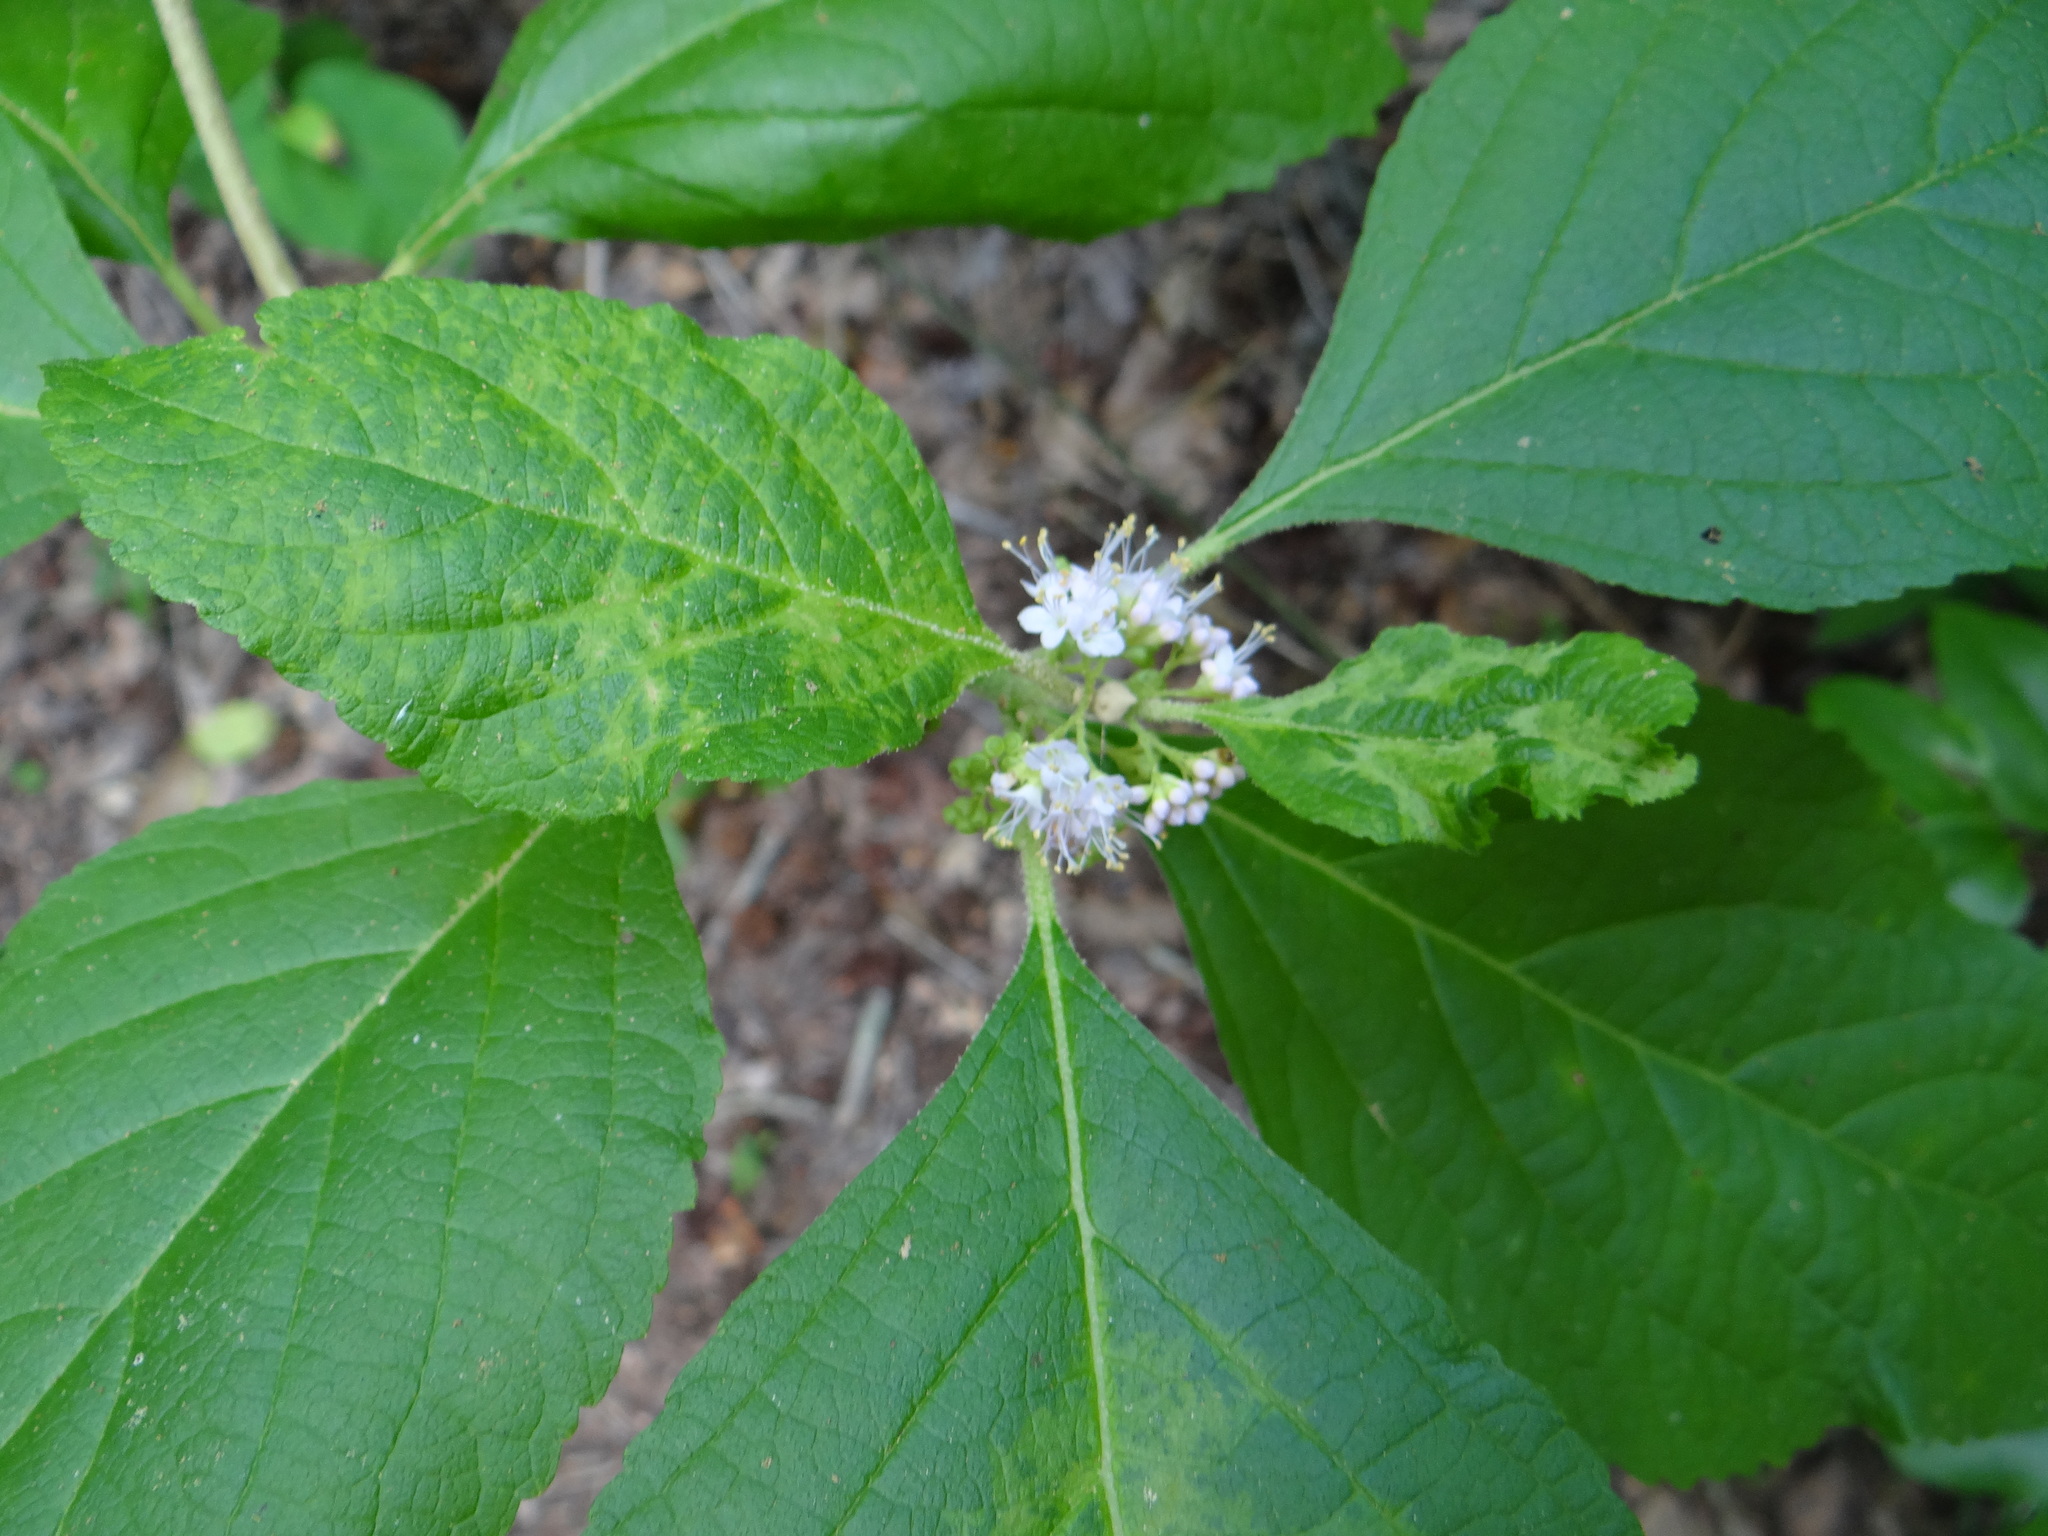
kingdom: Plantae
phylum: Tracheophyta
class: Magnoliopsida
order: Lamiales
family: Lamiaceae
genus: Callicarpa
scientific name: Callicarpa americana
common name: American beautyberry
